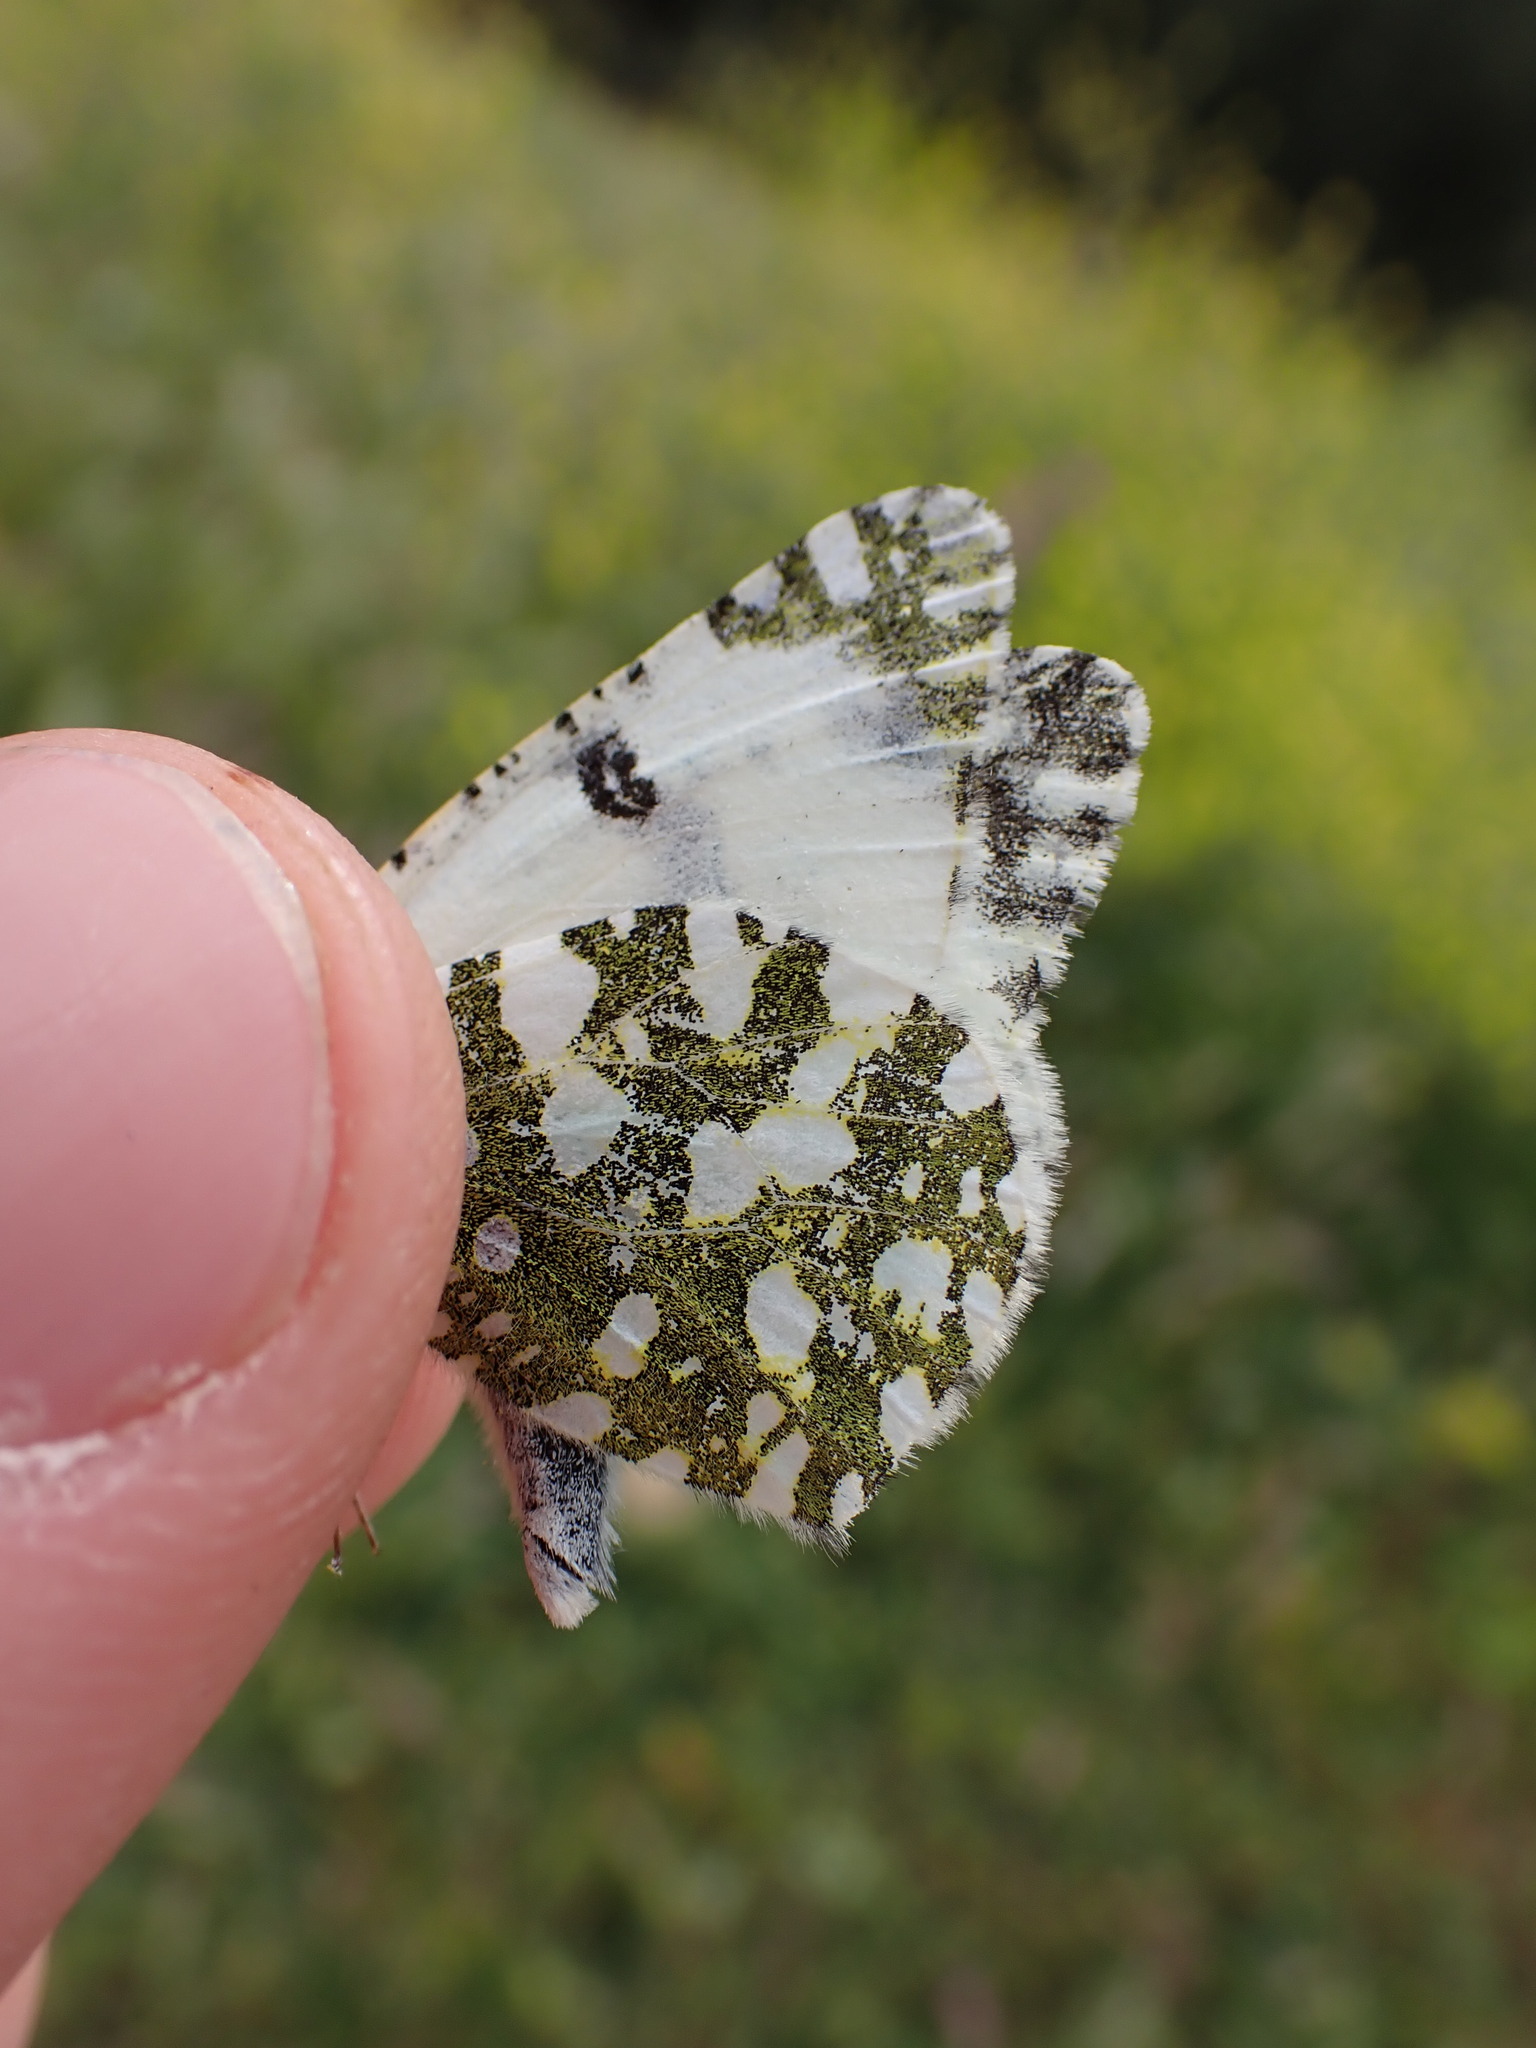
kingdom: Animalia
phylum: Arthropoda
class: Insecta
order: Lepidoptera
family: Pieridae
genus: Euchloe
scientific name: Euchloe crameri
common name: Western dappled white
